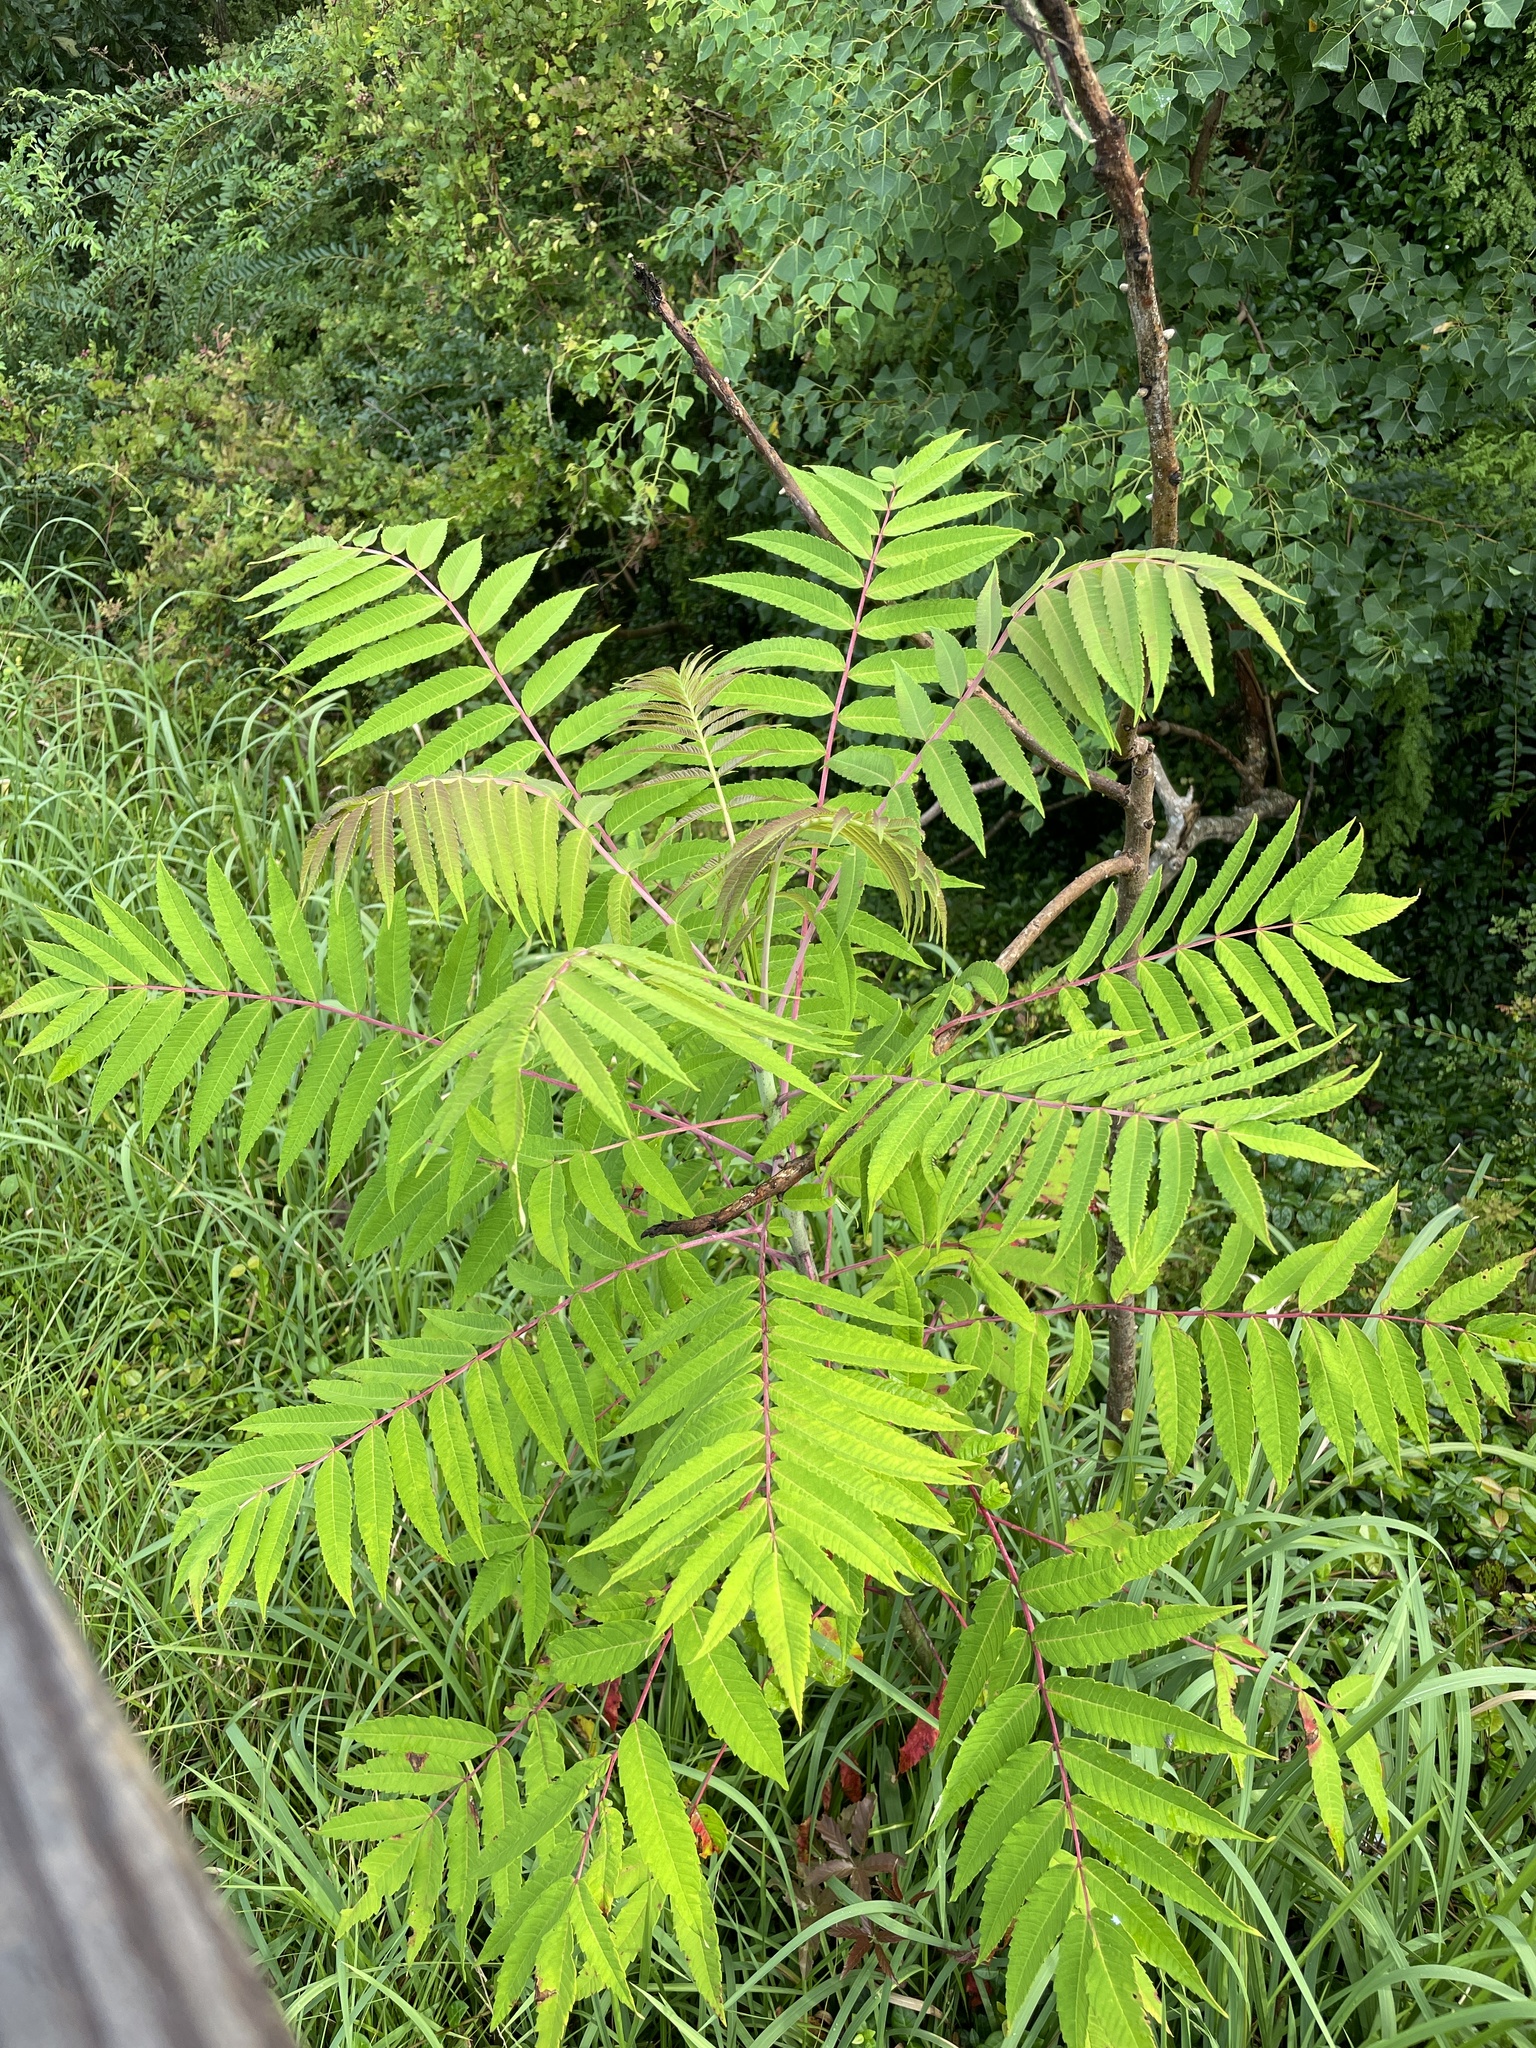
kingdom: Plantae
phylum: Tracheophyta
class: Magnoliopsida
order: Sapindales
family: Anacardiaceae
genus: Rhus
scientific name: Rhus glabra
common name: Scarlet sumac
